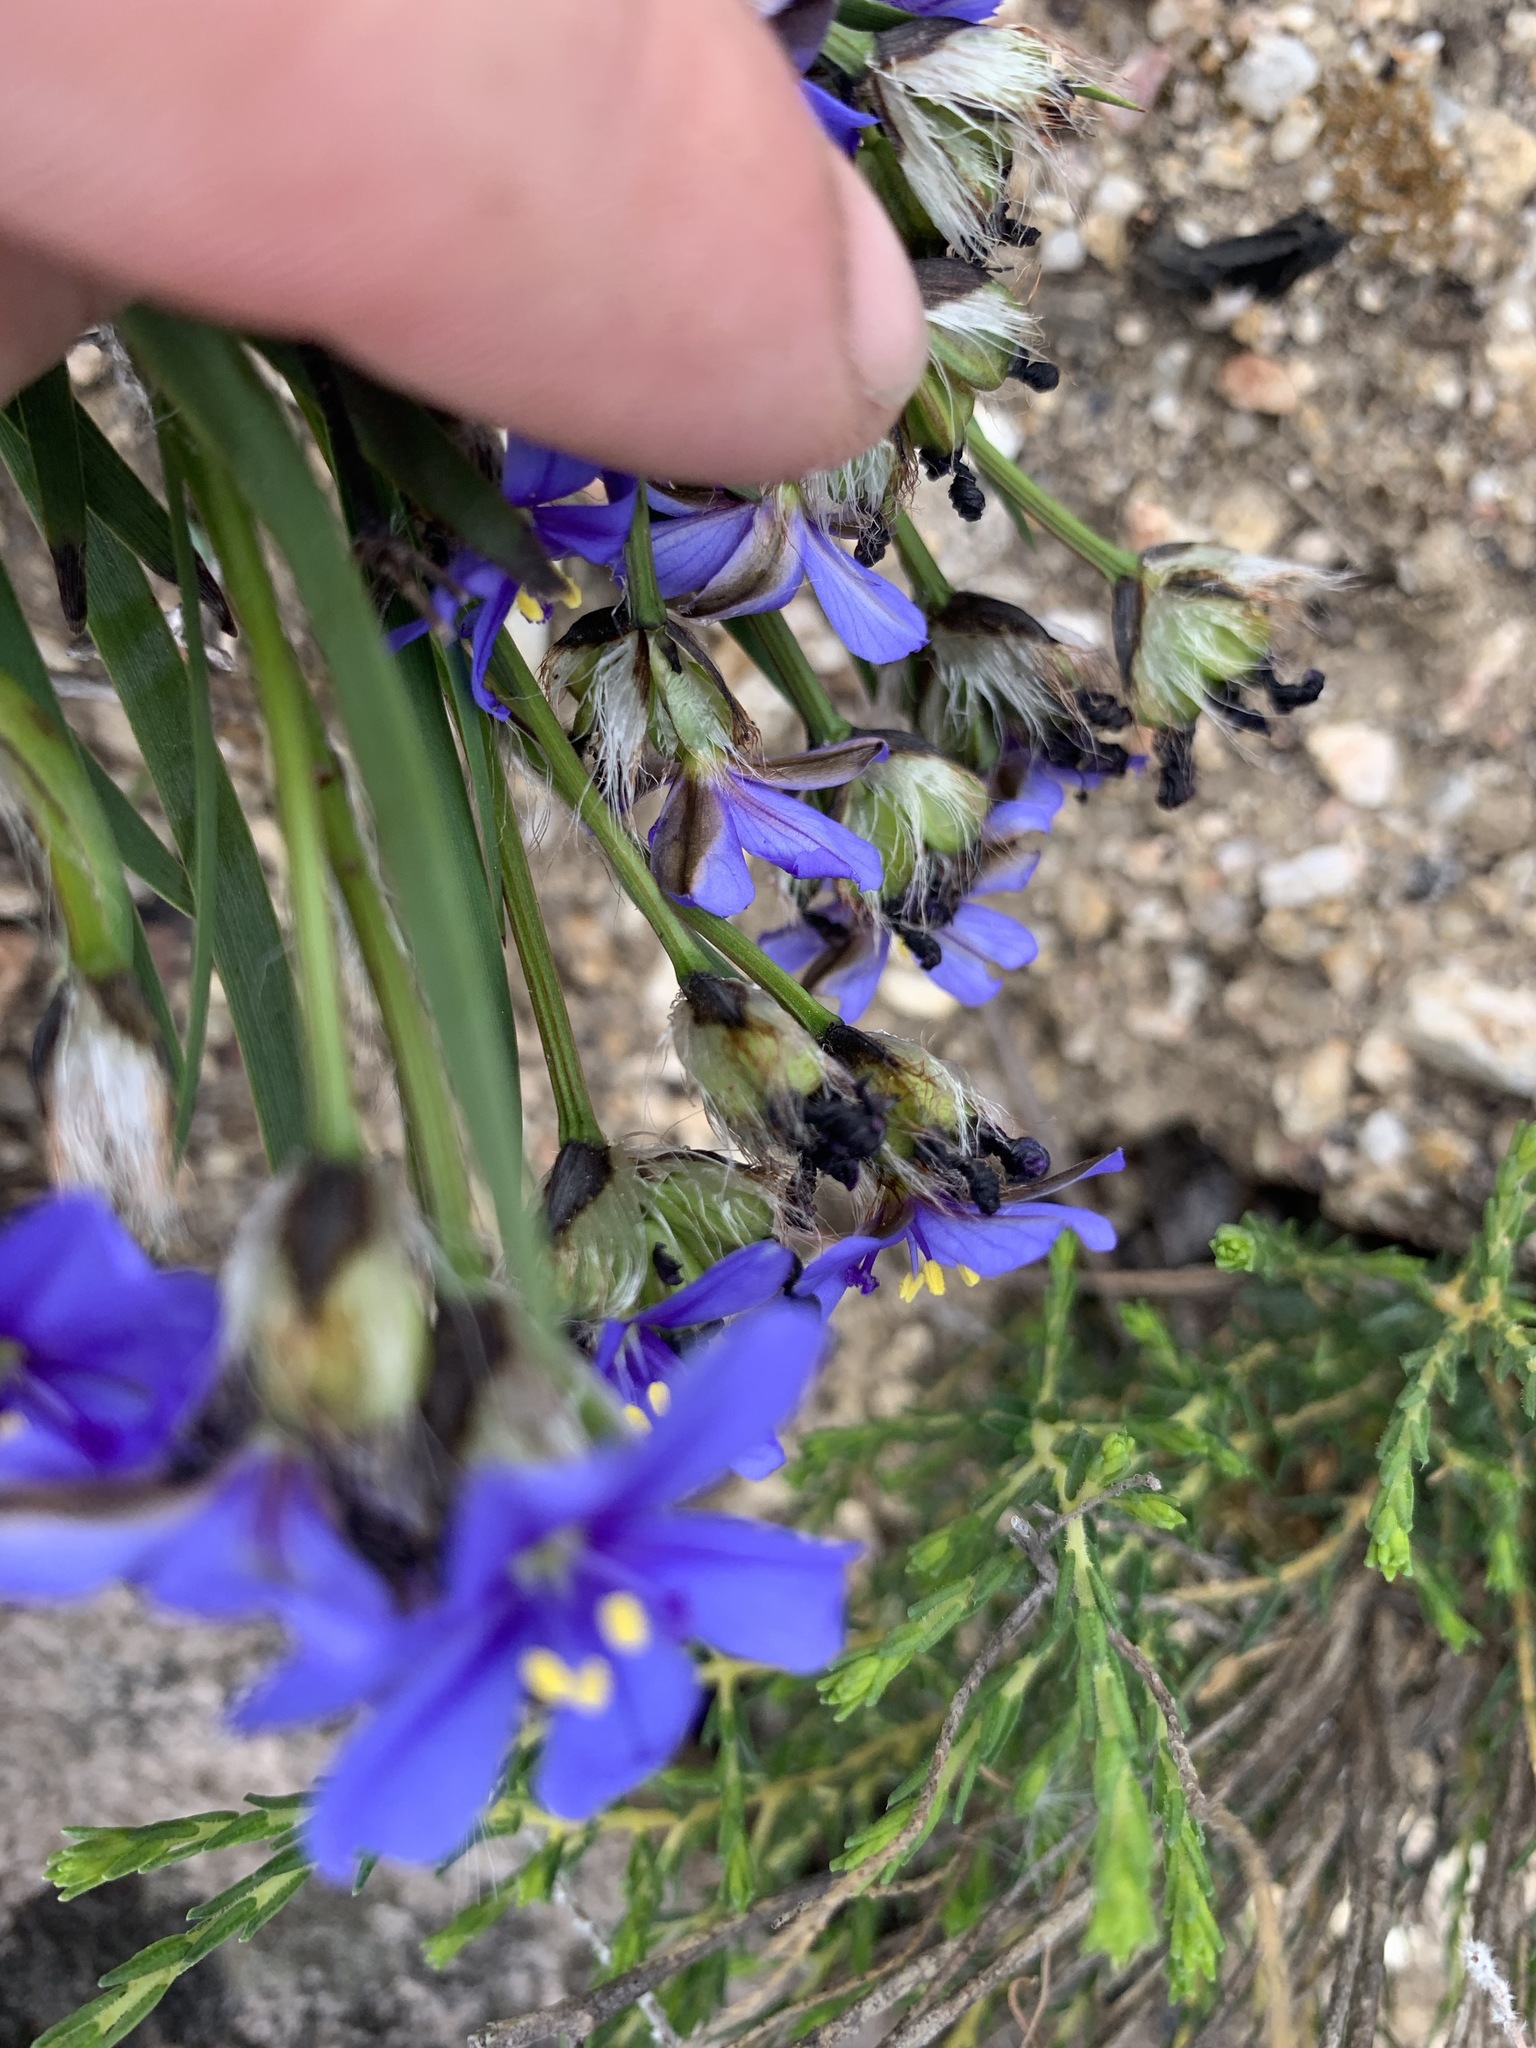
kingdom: Plantae
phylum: Tracheophyta
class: Liliopsida
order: Asparagales
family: Iridaceae
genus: Aristea
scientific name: Aristea africana
